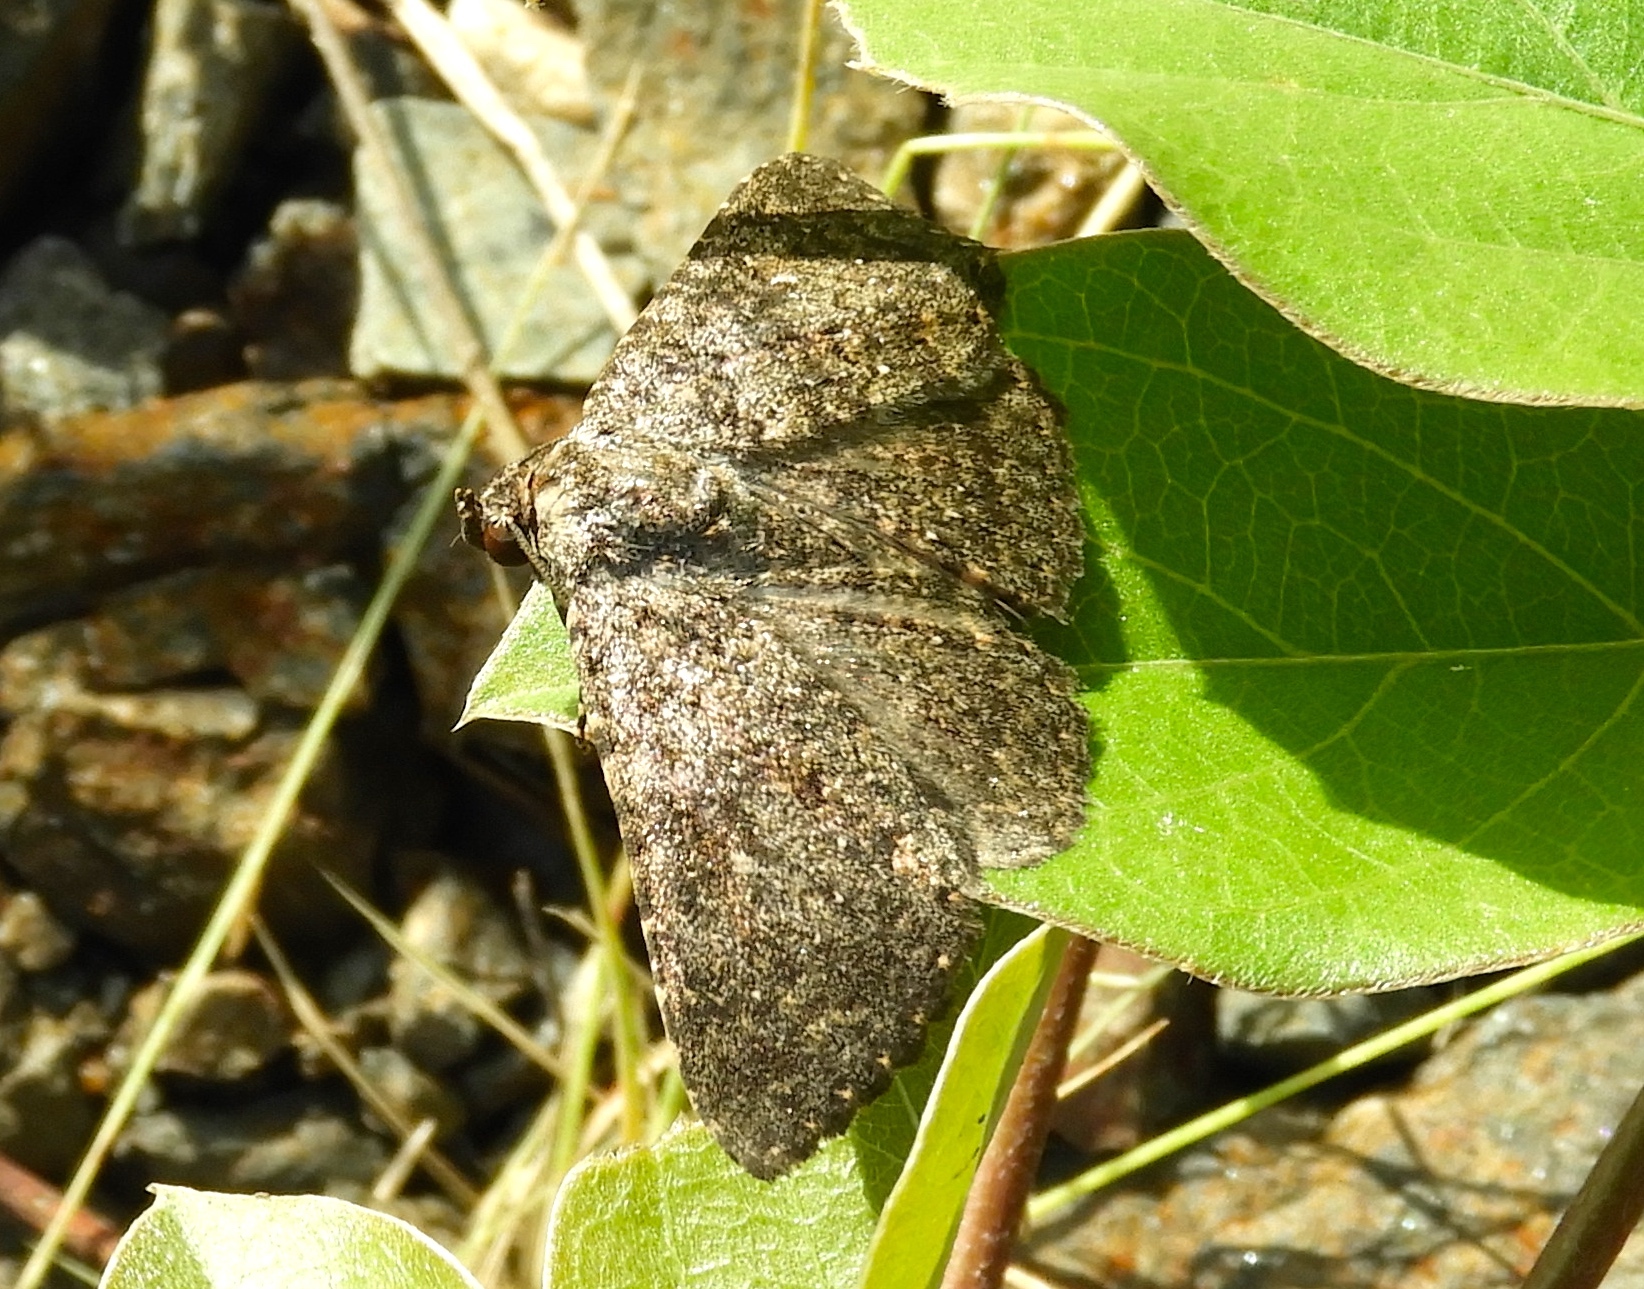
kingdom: Animalia
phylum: Arthropoda
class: Insecta
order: Lepidoptera
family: Erebidae
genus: Matigramma
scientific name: Matigramma
